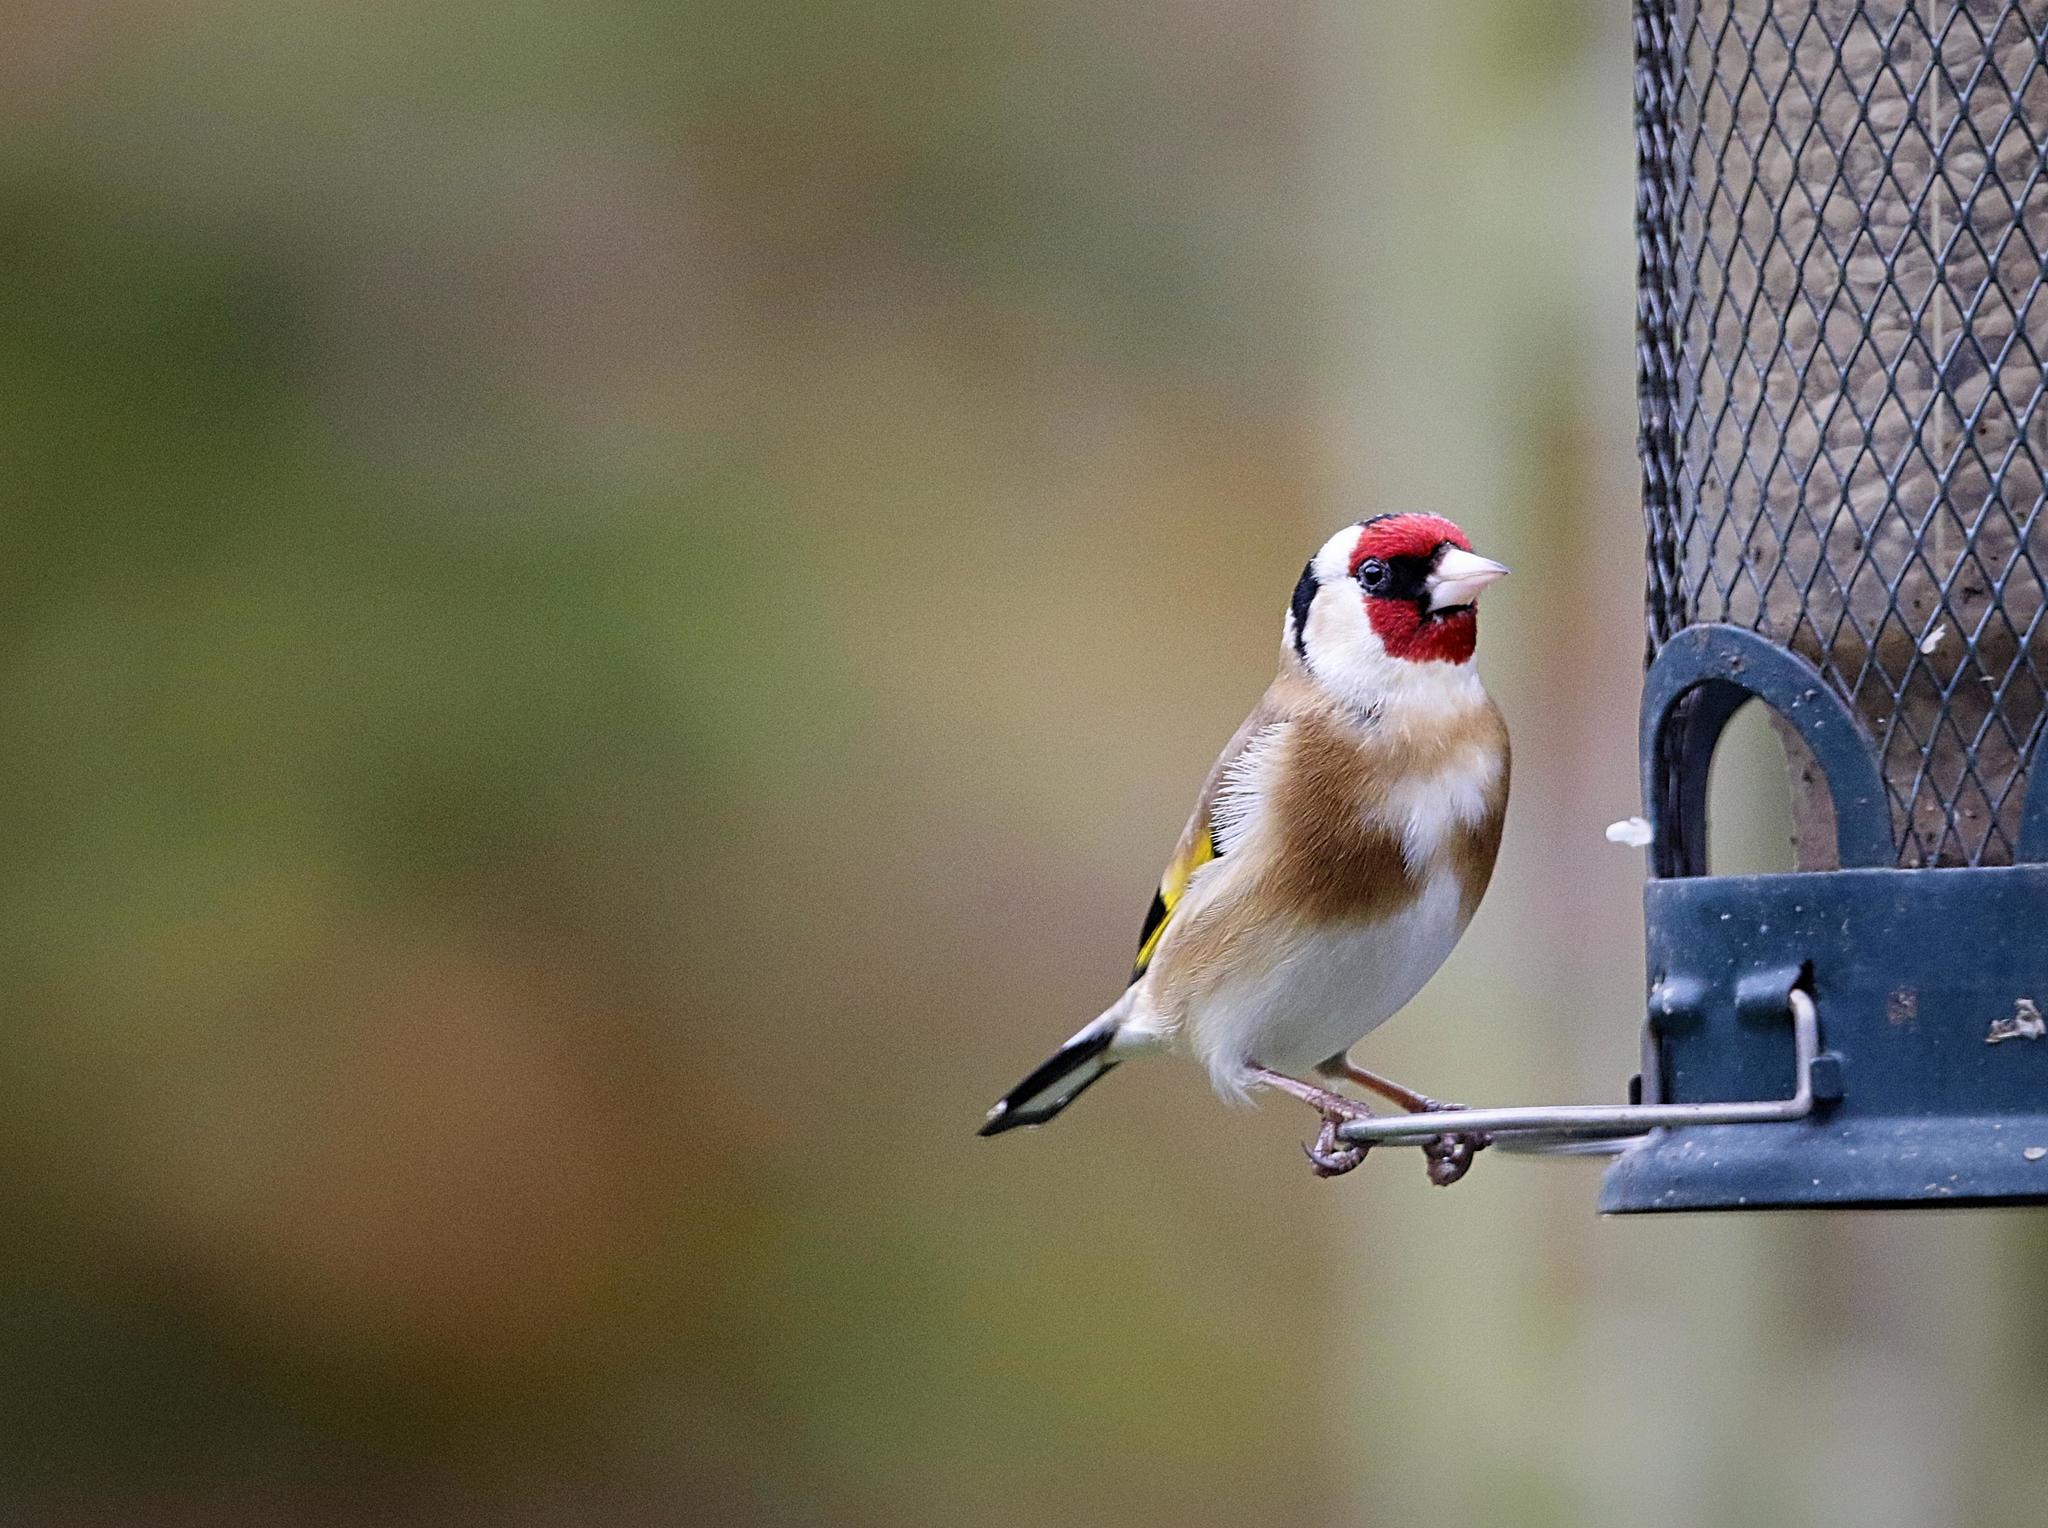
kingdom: Animalia
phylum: Chordata
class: Aves
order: Passeriformes
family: Fringillidae
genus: Carduelis
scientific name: Carduelis carduelis
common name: European goldfinch
